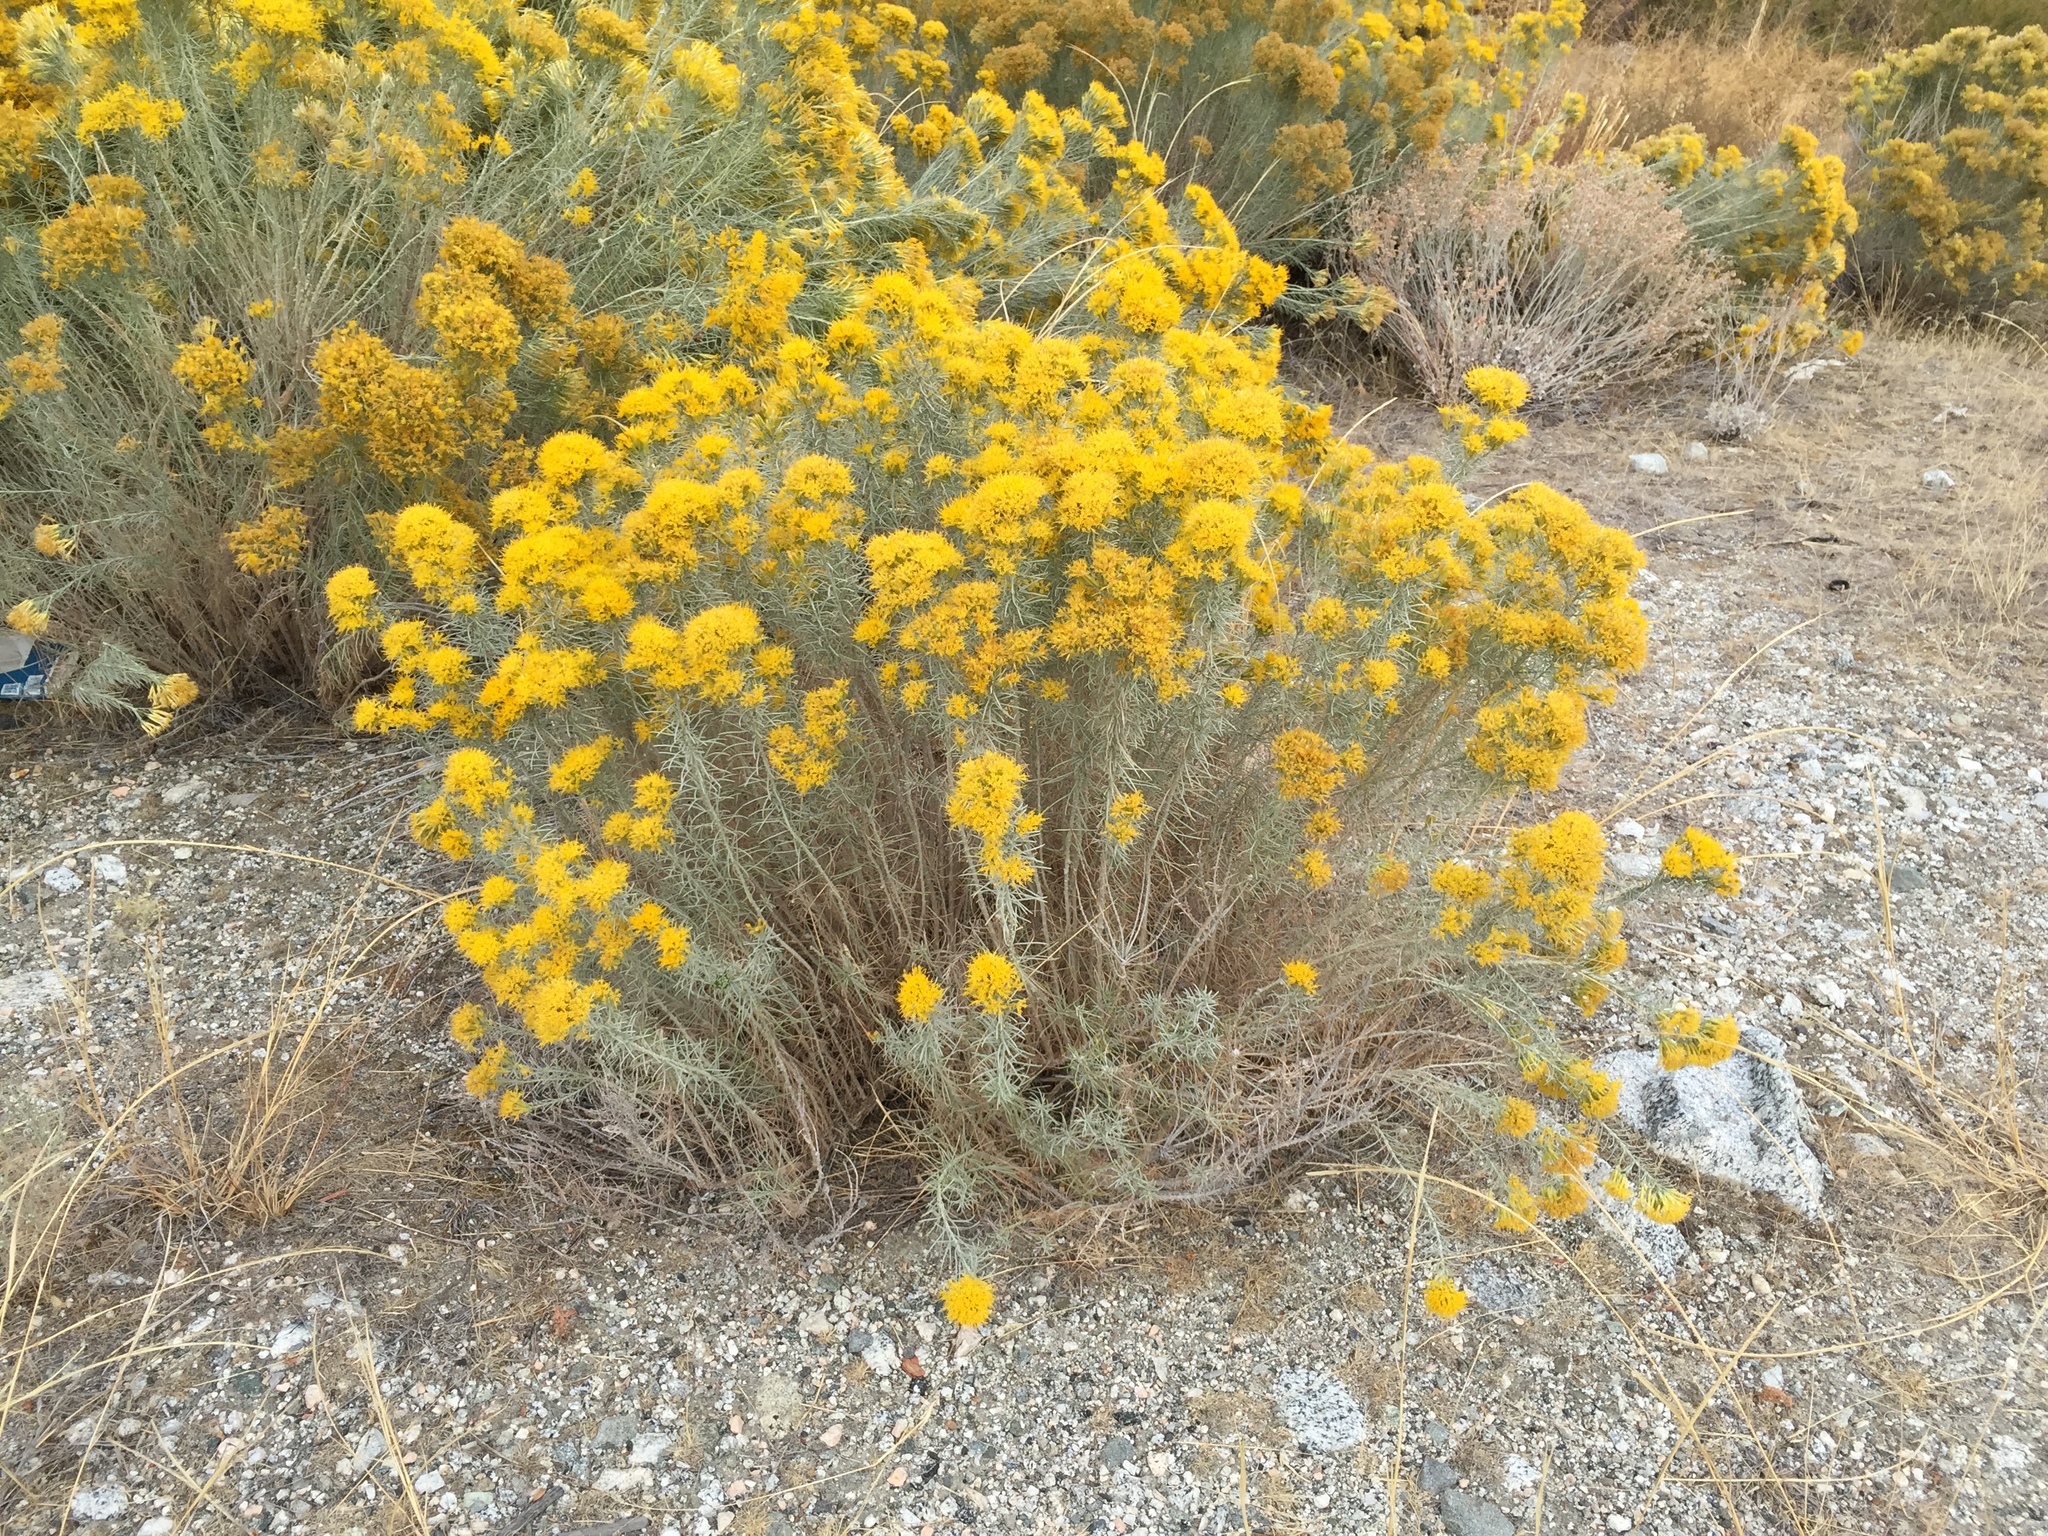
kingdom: Plantae
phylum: Tracheophyta
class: Magnoliopsida
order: Asterales
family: Asteraceae
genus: Ericameria
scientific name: Ericameria nauseosa
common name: Rubber rabbitbrush
